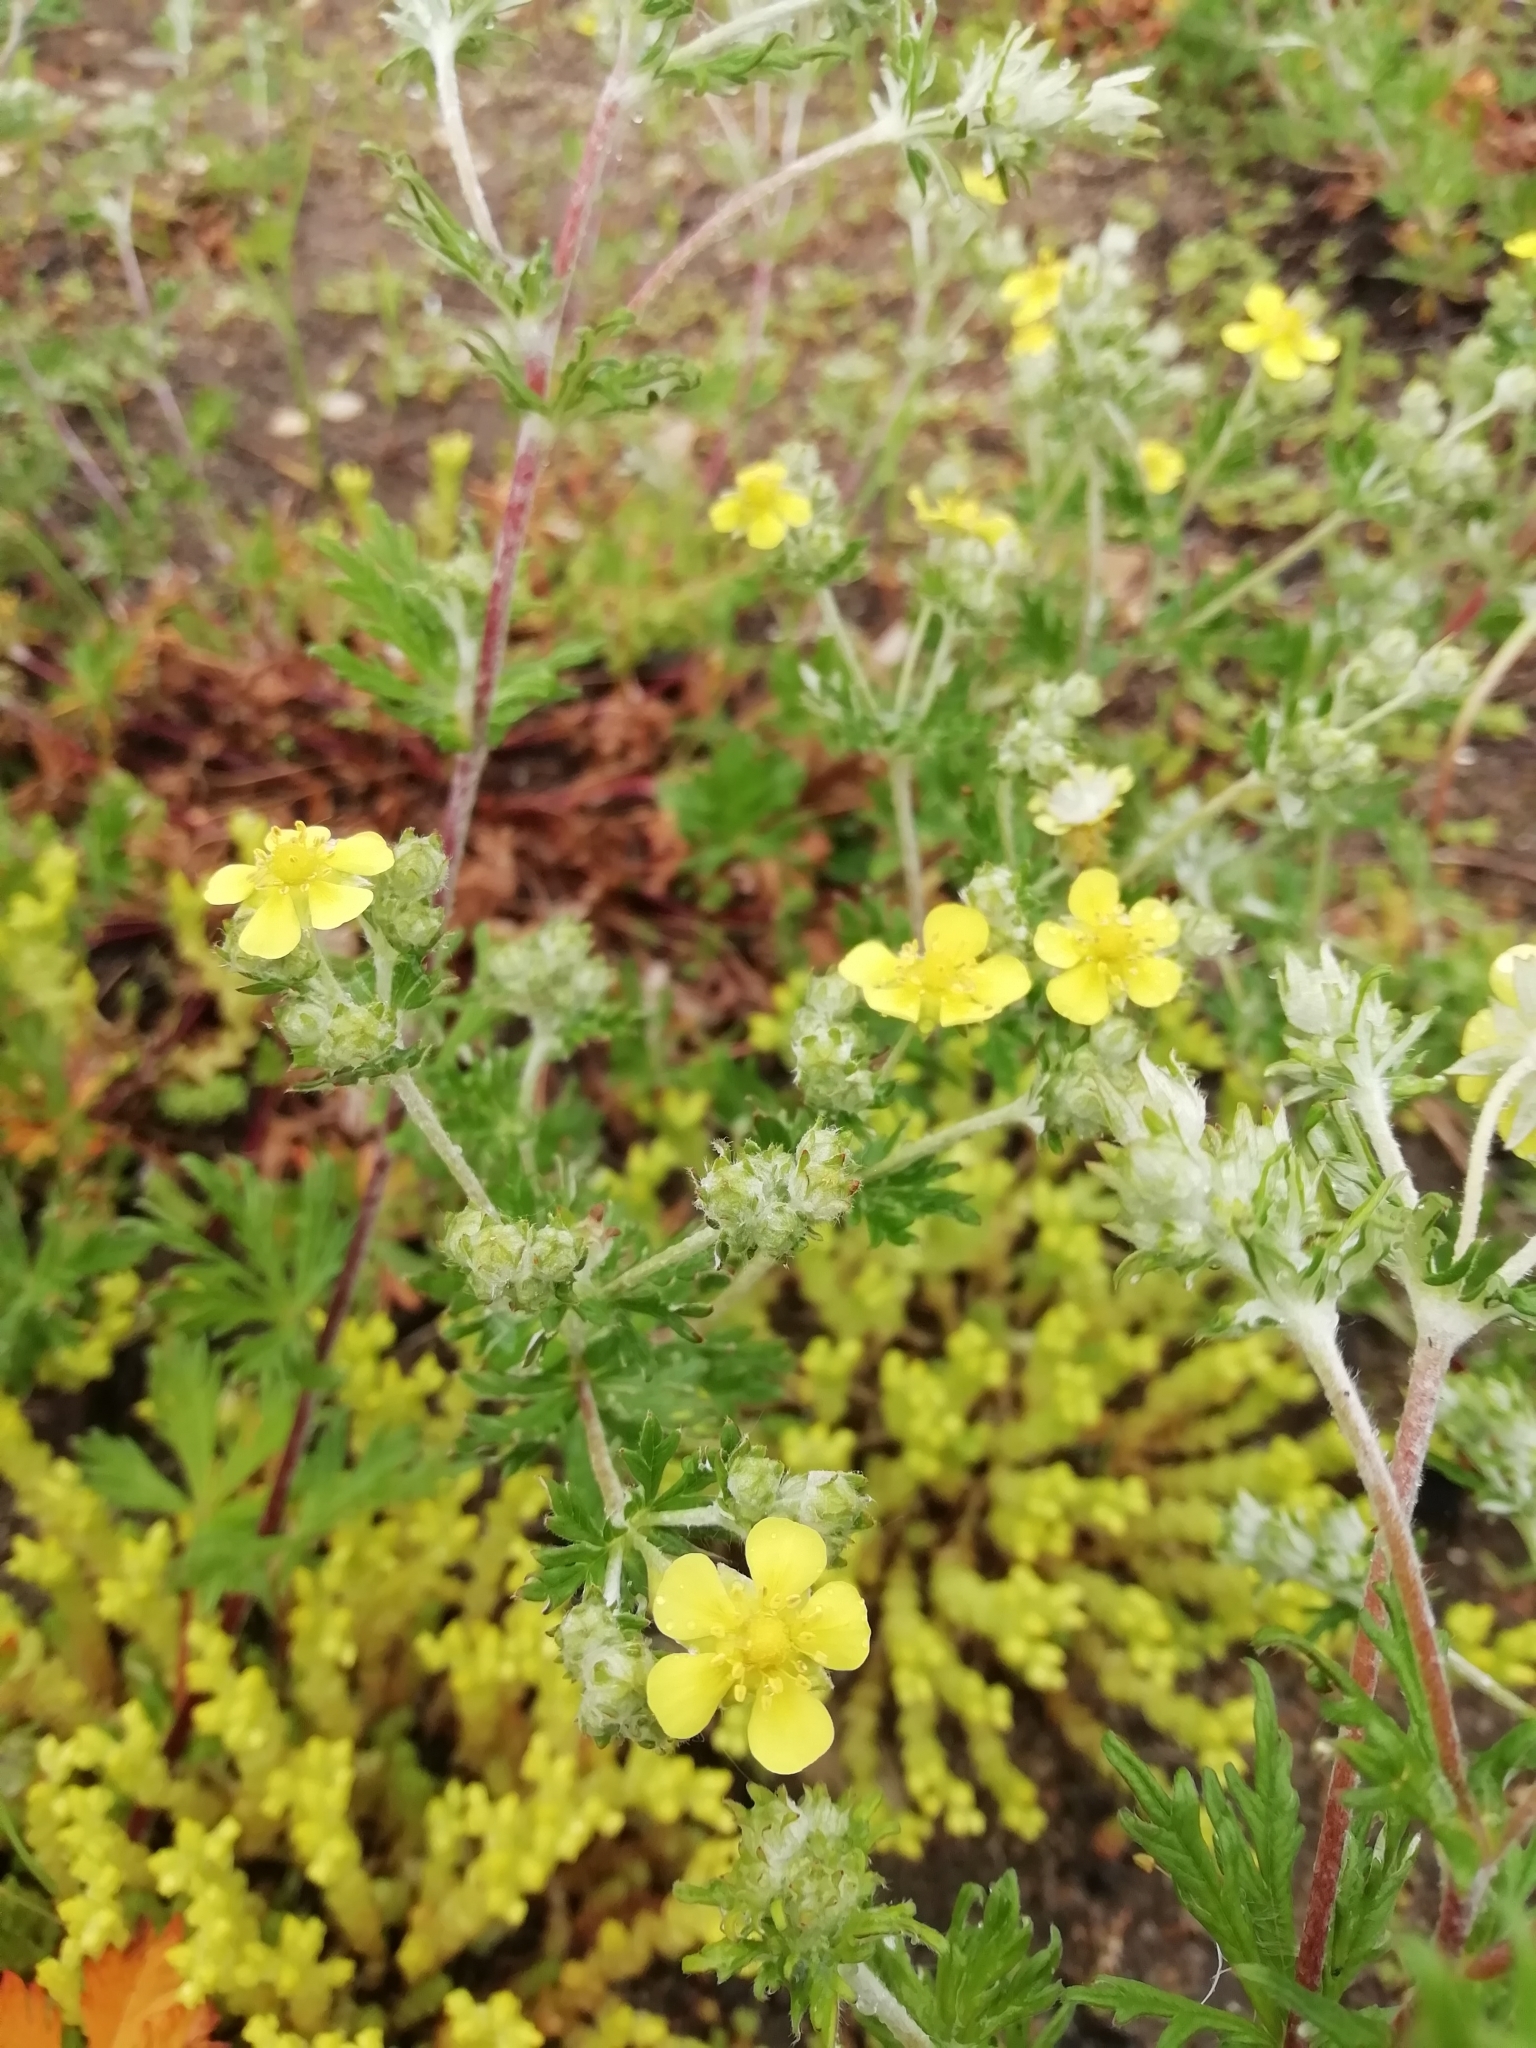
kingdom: Plantae
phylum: Tracheophyta
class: Magnoliopsida
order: Rosales
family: Rosaceae
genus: Potentilla
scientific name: Potentilla argentea
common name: Hoary cinquefoil
